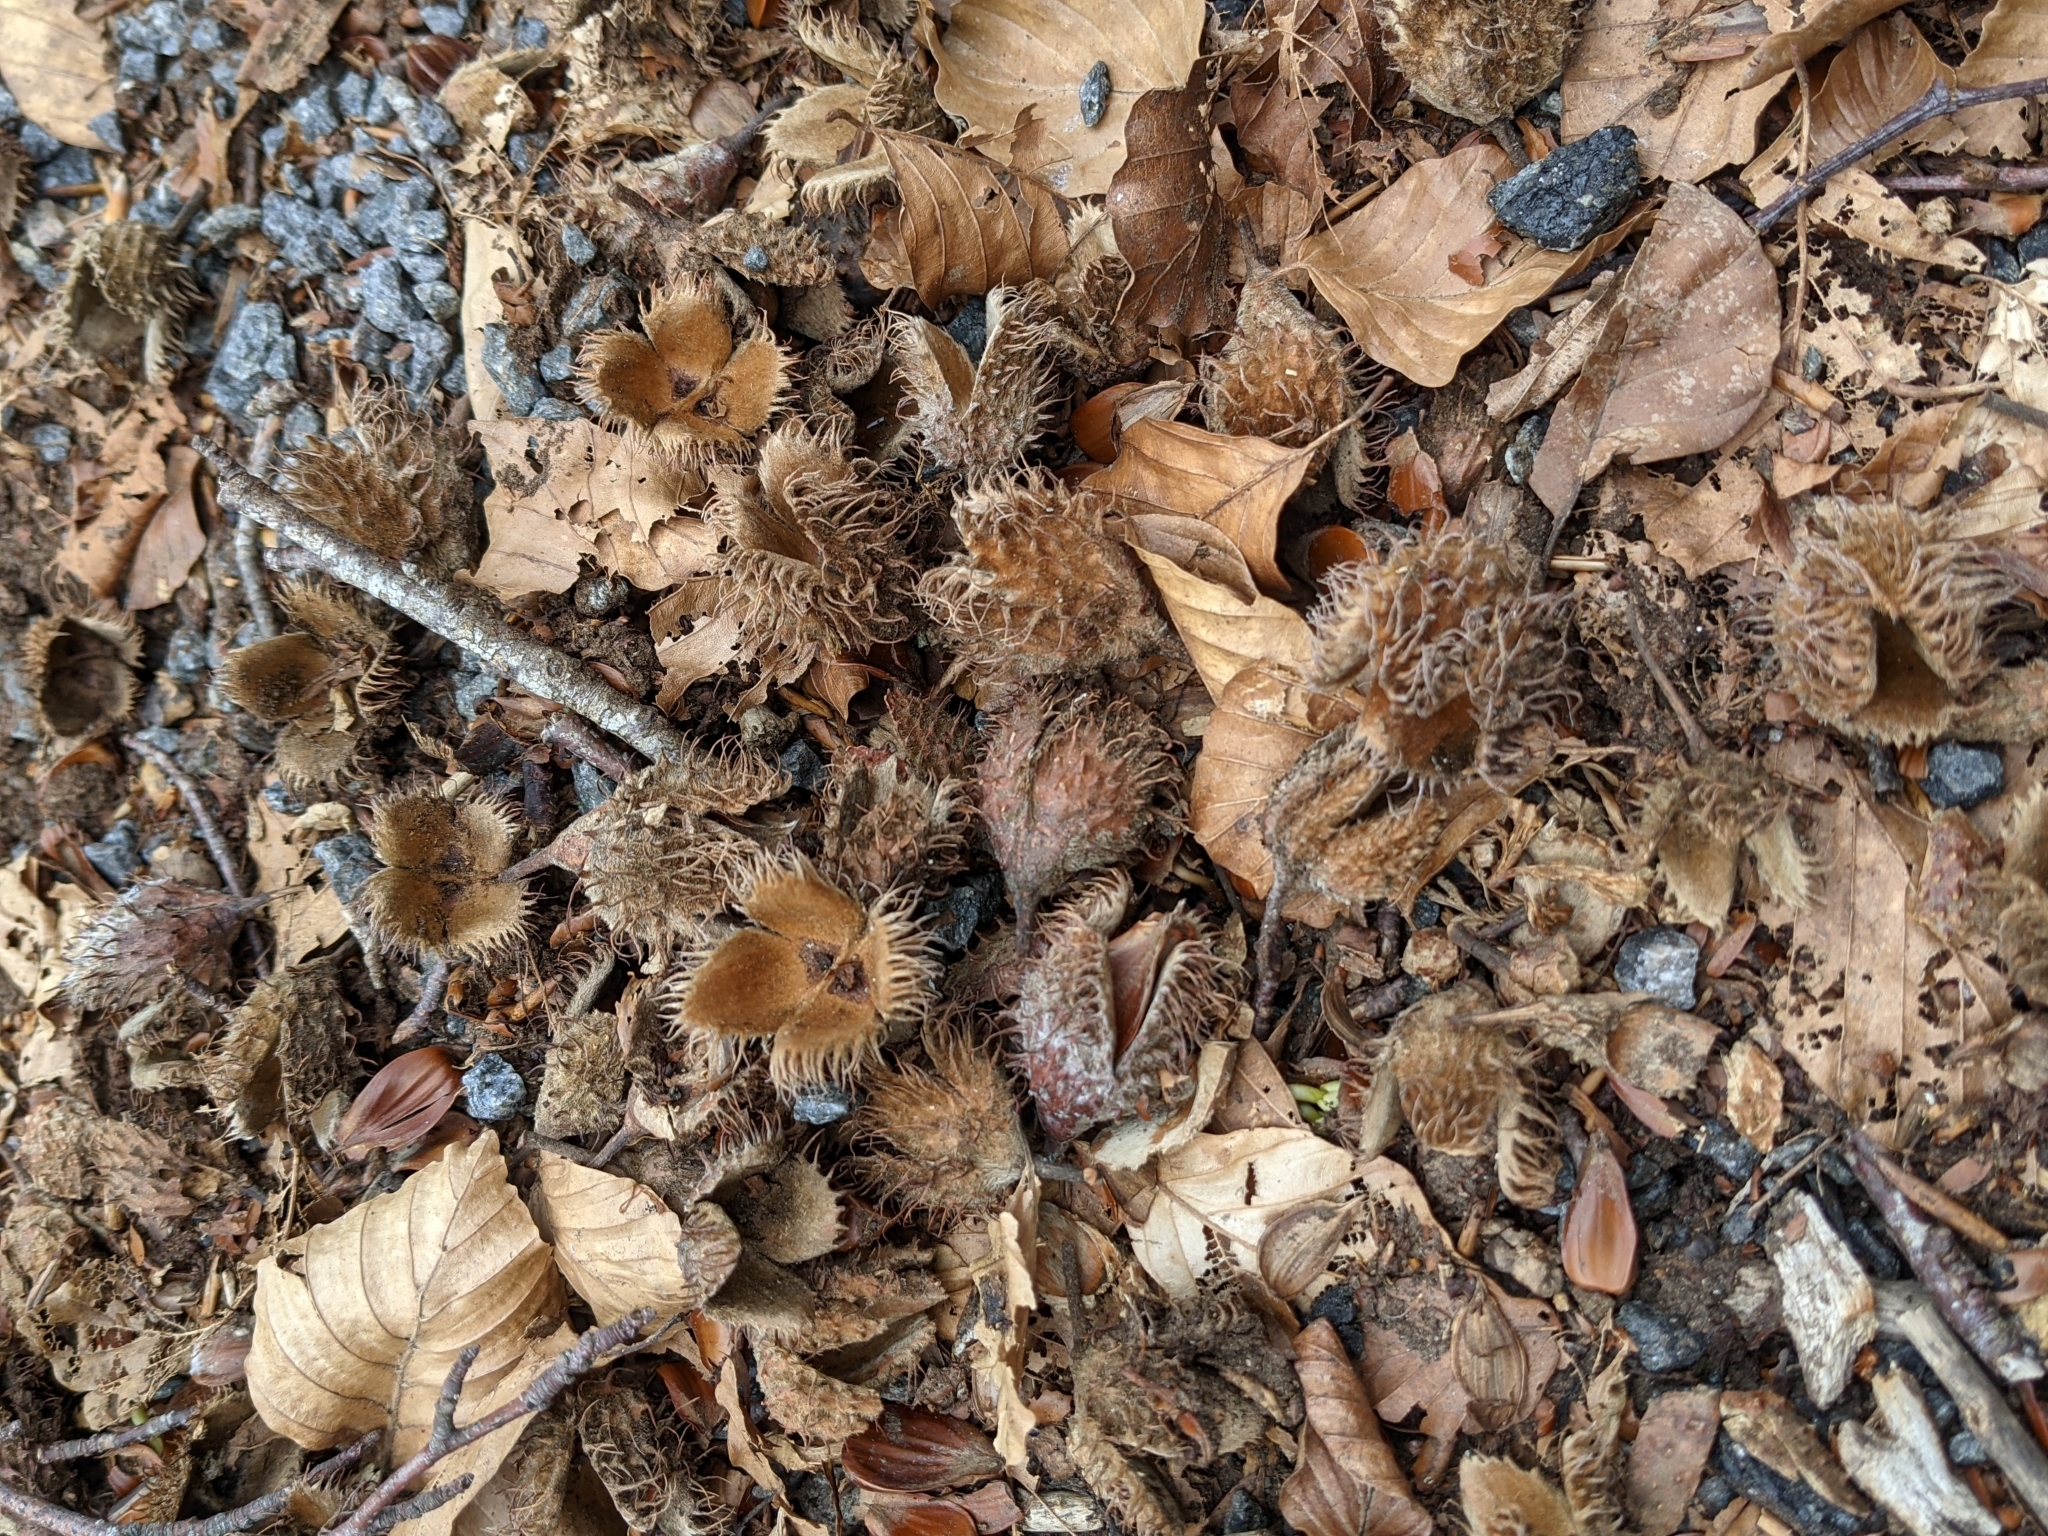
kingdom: Plantae
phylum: Tracheophyta
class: Magnoliopsida
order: Fagales
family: Fagaceae
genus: Fagus
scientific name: Fagus sylvatica
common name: Beech
